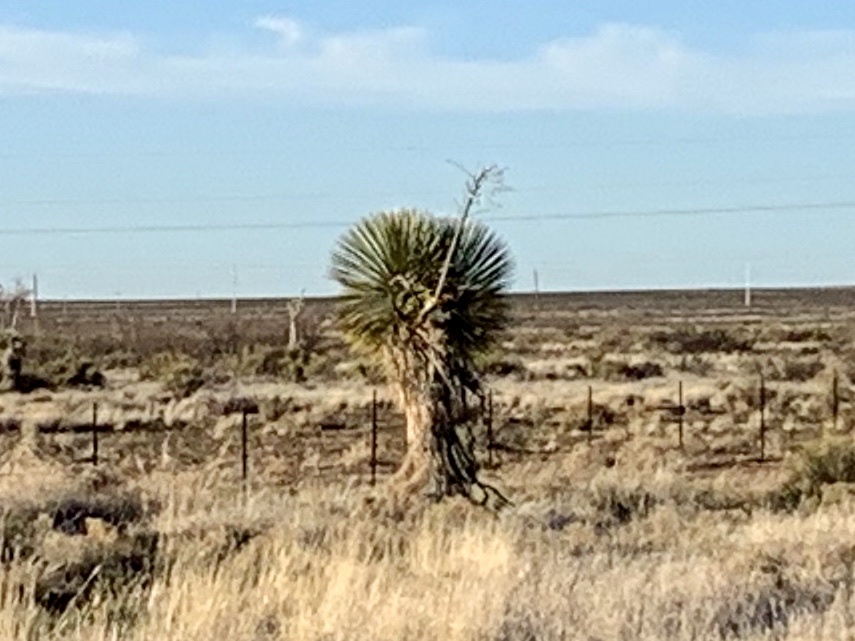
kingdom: Plantae
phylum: Tracheophyta
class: Liliopsida
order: Asparagales
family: Asparagaceae
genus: Yucca
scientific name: Yucca elata
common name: Palmella
